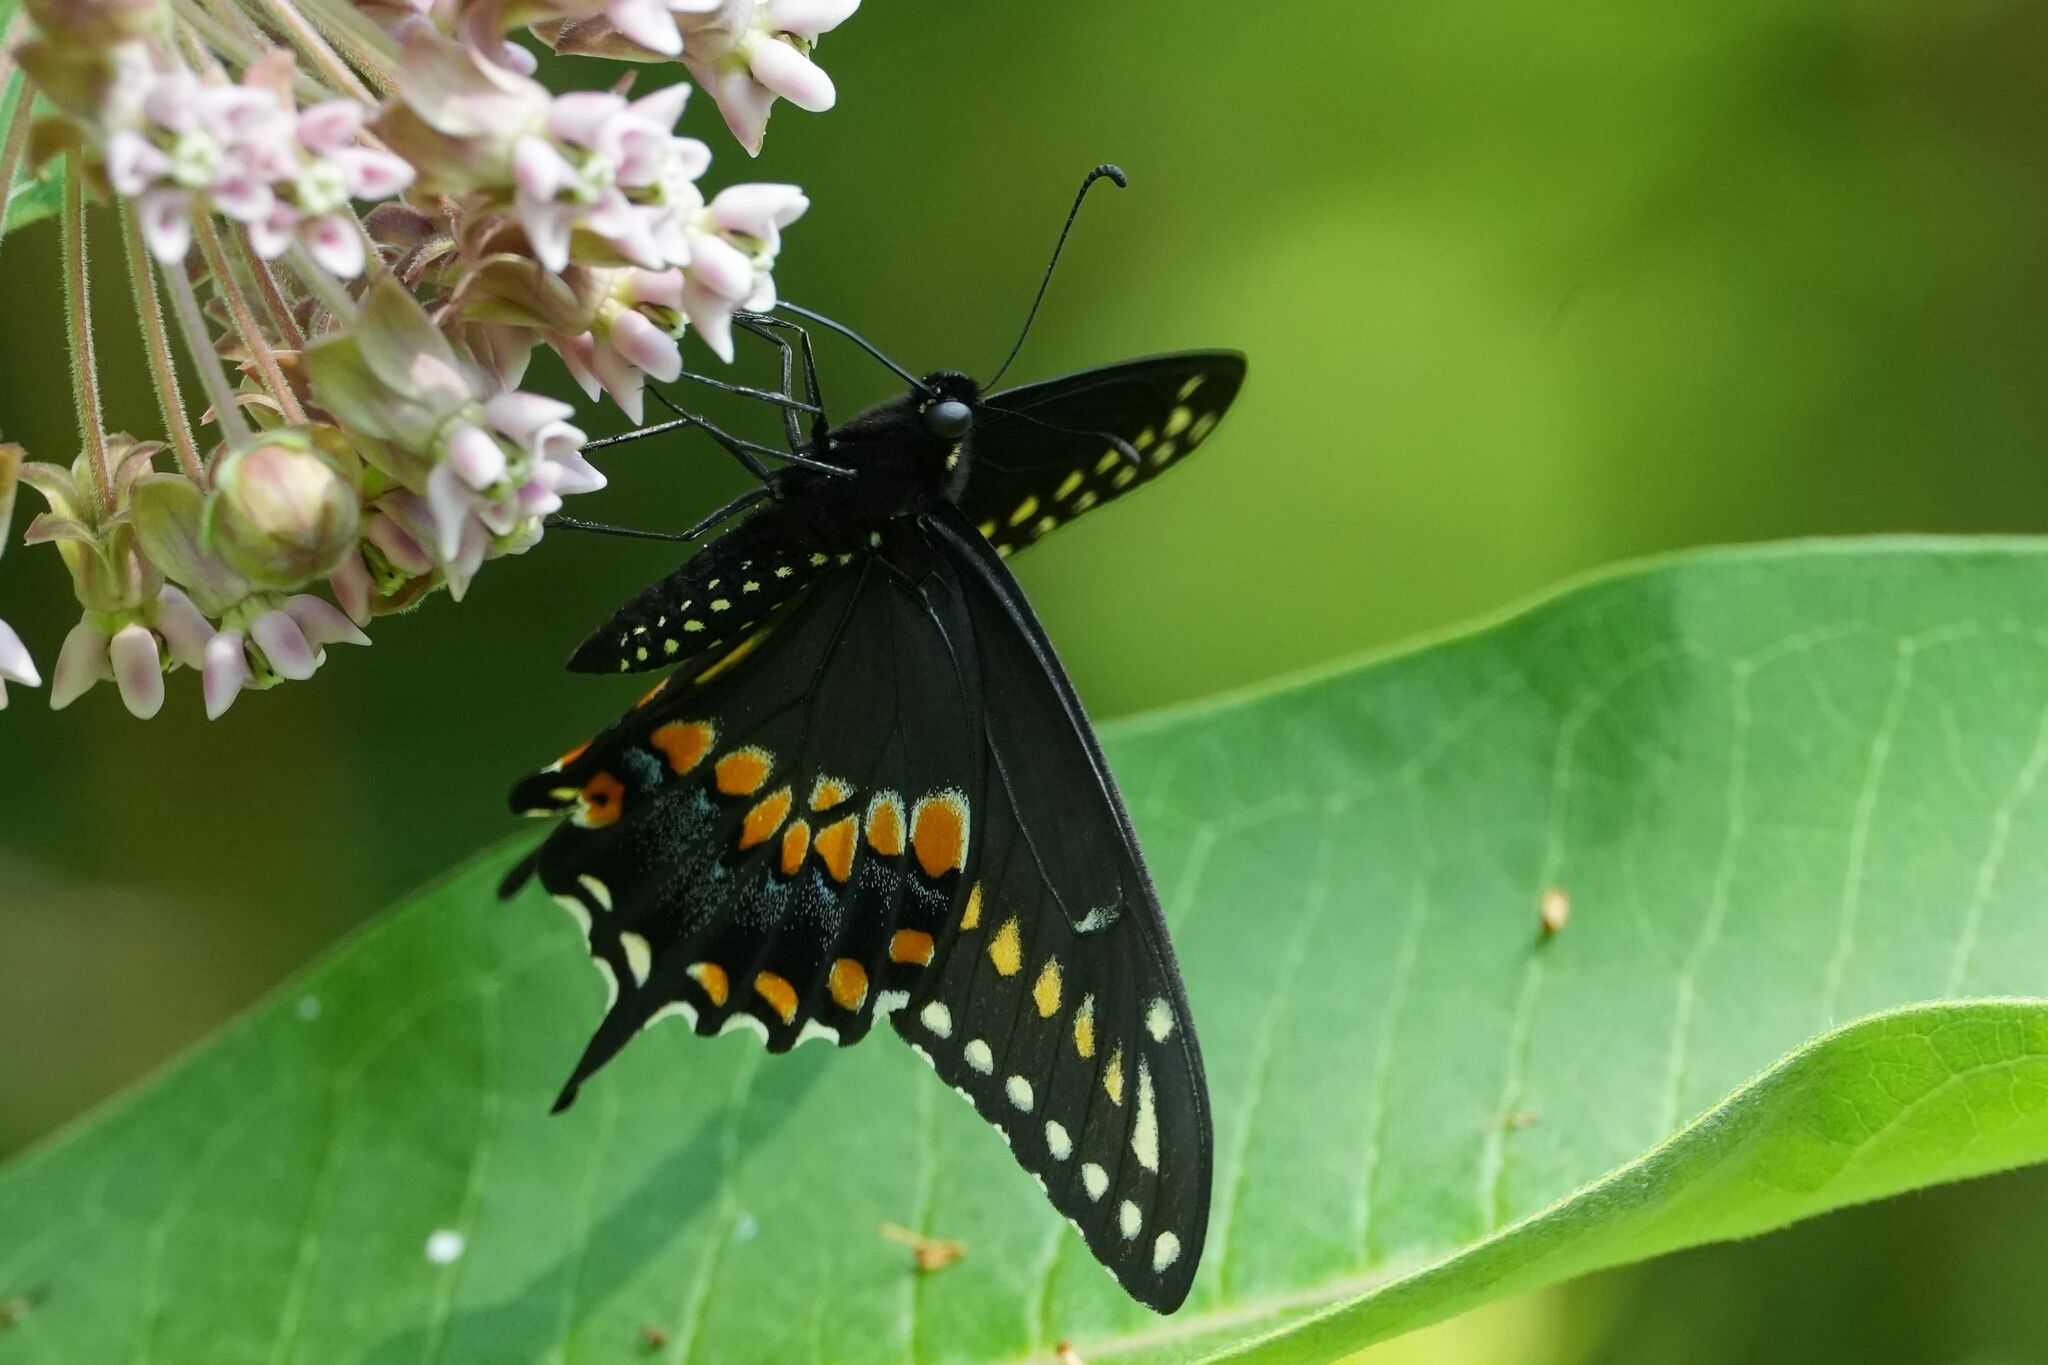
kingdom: Animalia
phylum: Arthropoda
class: Insecta
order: Lepidoptera
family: Papilionidae
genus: Papilio
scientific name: Papilio polyxenes
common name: Black swallowtail
